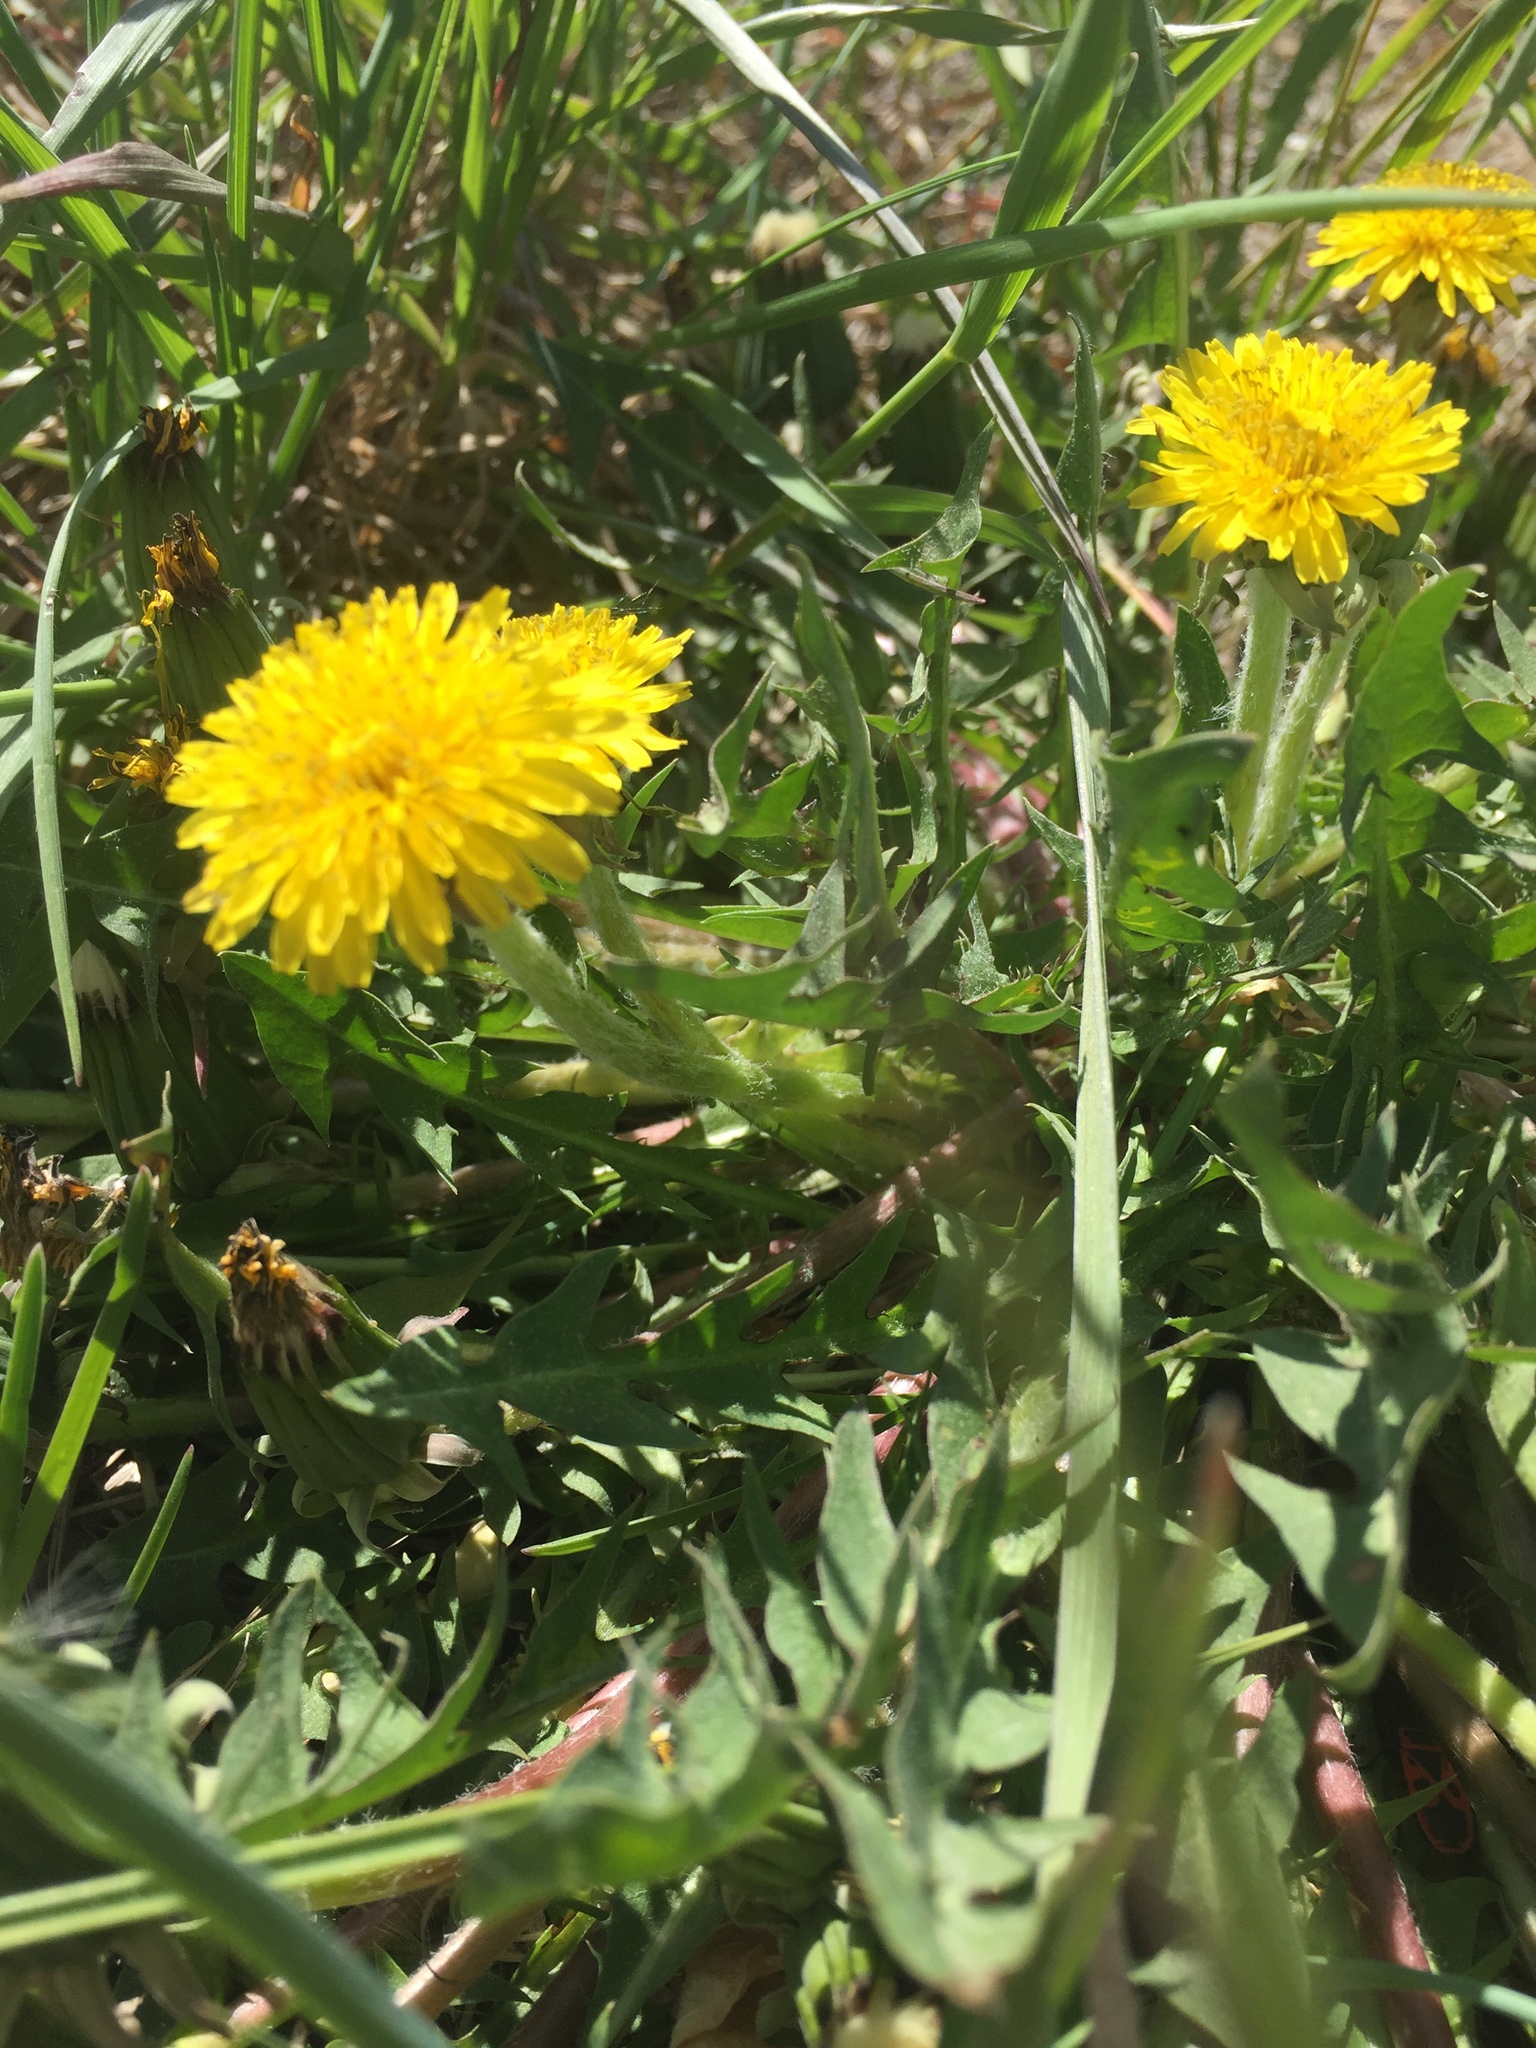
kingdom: Plantae
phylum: Tracheophyta
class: Magnoliopsida
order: Asterales
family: Asteraceae
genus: Taraxacum
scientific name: Taraxacum officinale
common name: Common dandelion
